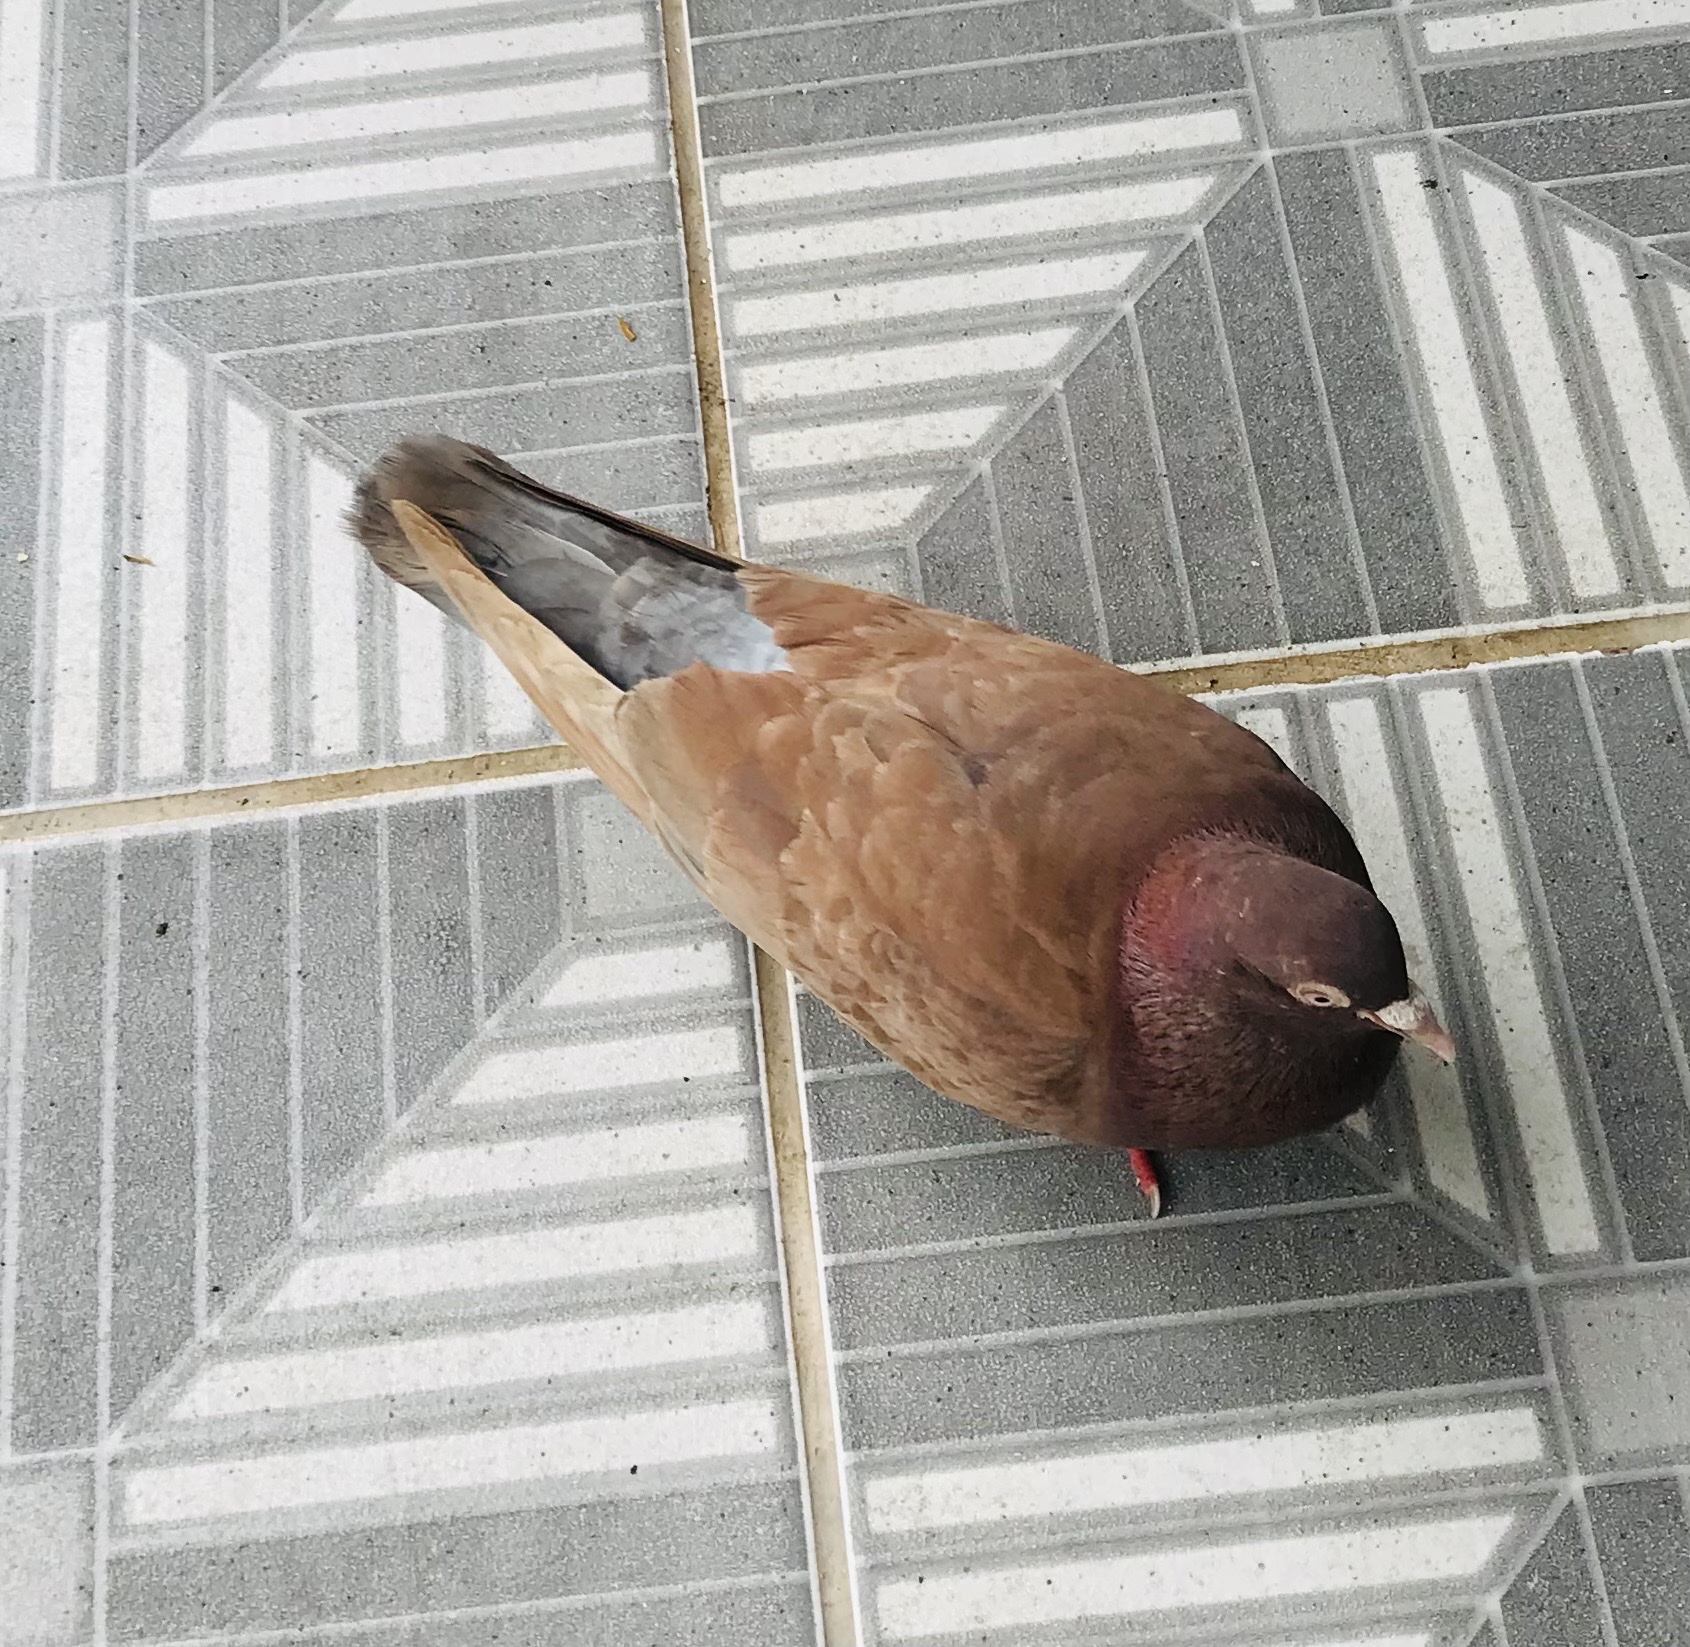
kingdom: Animalia
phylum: Chordata
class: Aves
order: Columbiformes
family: Columbidae
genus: Columba
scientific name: Columba livia
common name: Rock pigeon
